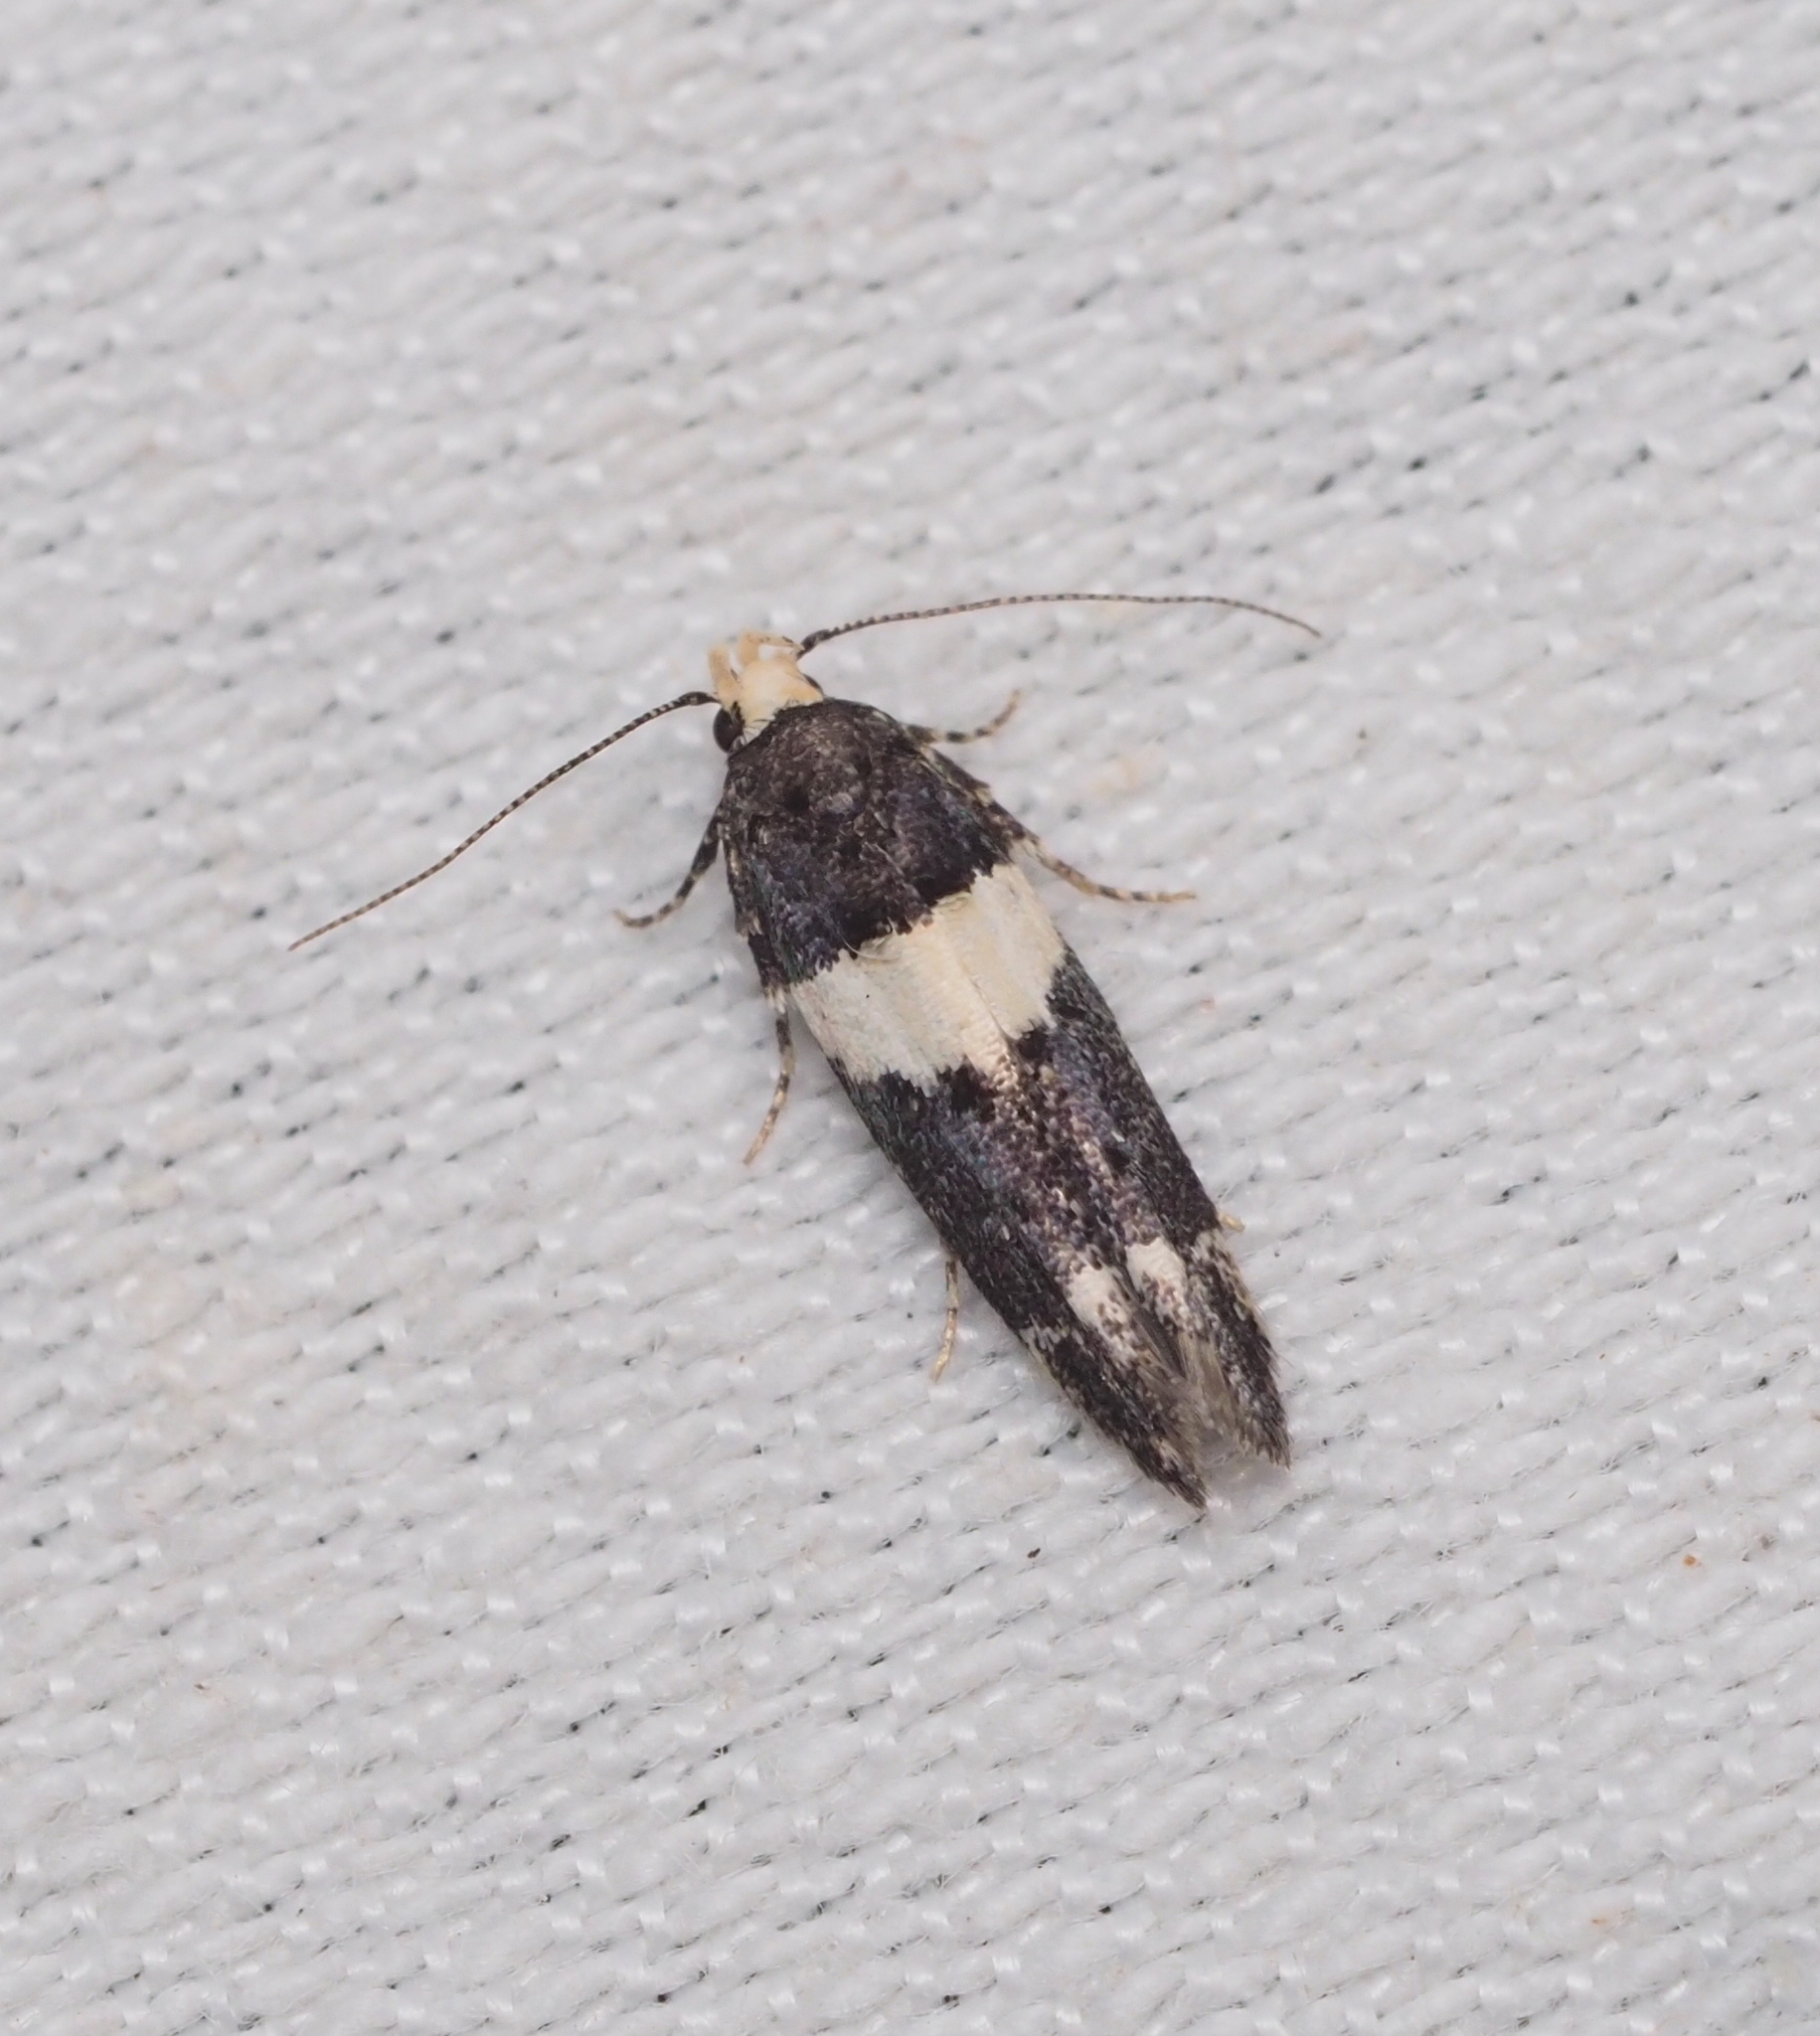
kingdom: Animalia
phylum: Arthropoda
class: Insecta
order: Lepidoptera
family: Gelechiidae
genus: Recurvaria
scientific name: Recurvaria leucatella
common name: White-barred groundling
